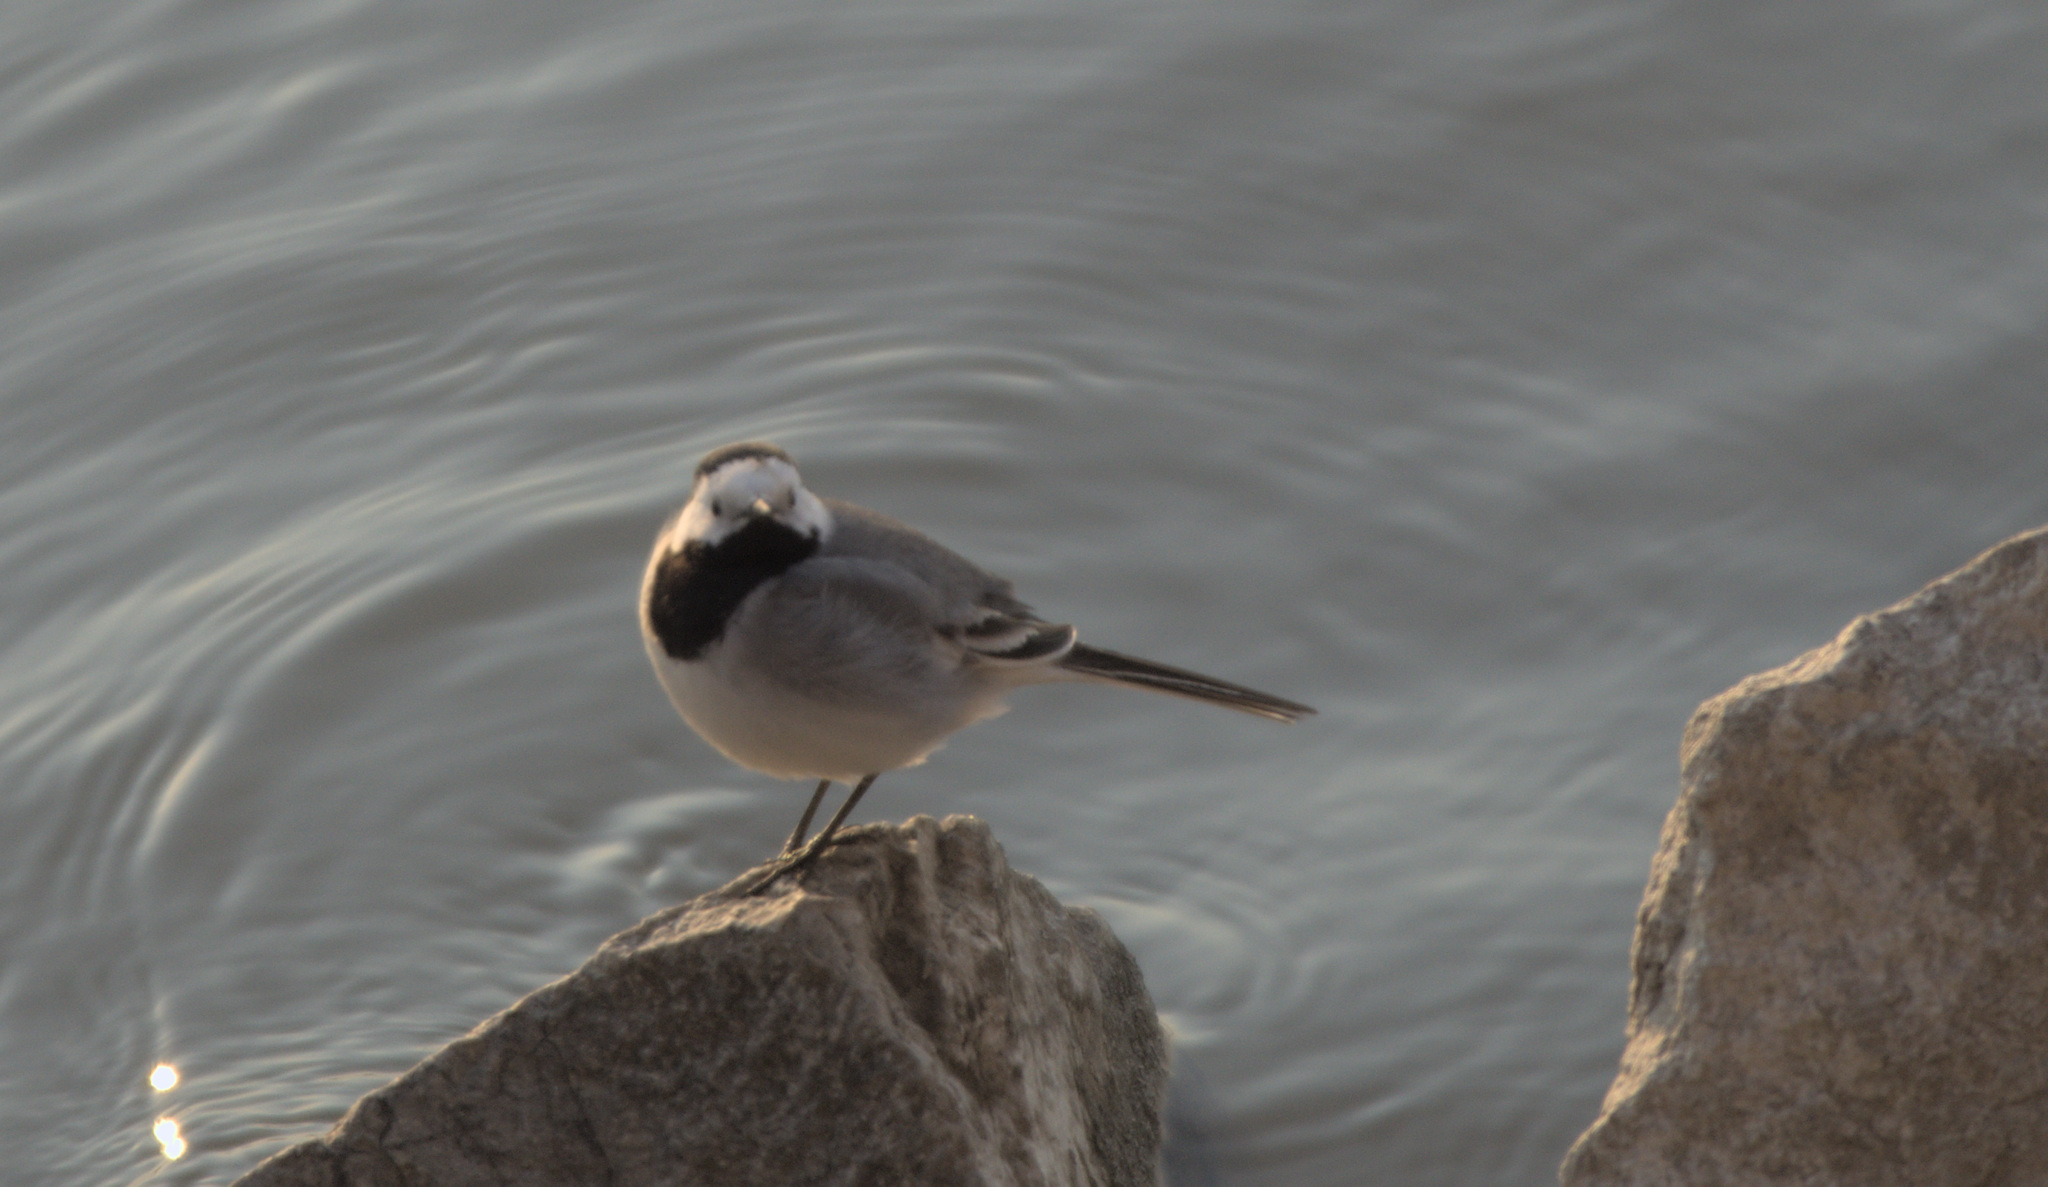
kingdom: Animalia
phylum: Chordata
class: Aves
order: Passeriformes
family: Motacillidae
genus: Motacilla
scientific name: Motacilla alba
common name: White wagtail
